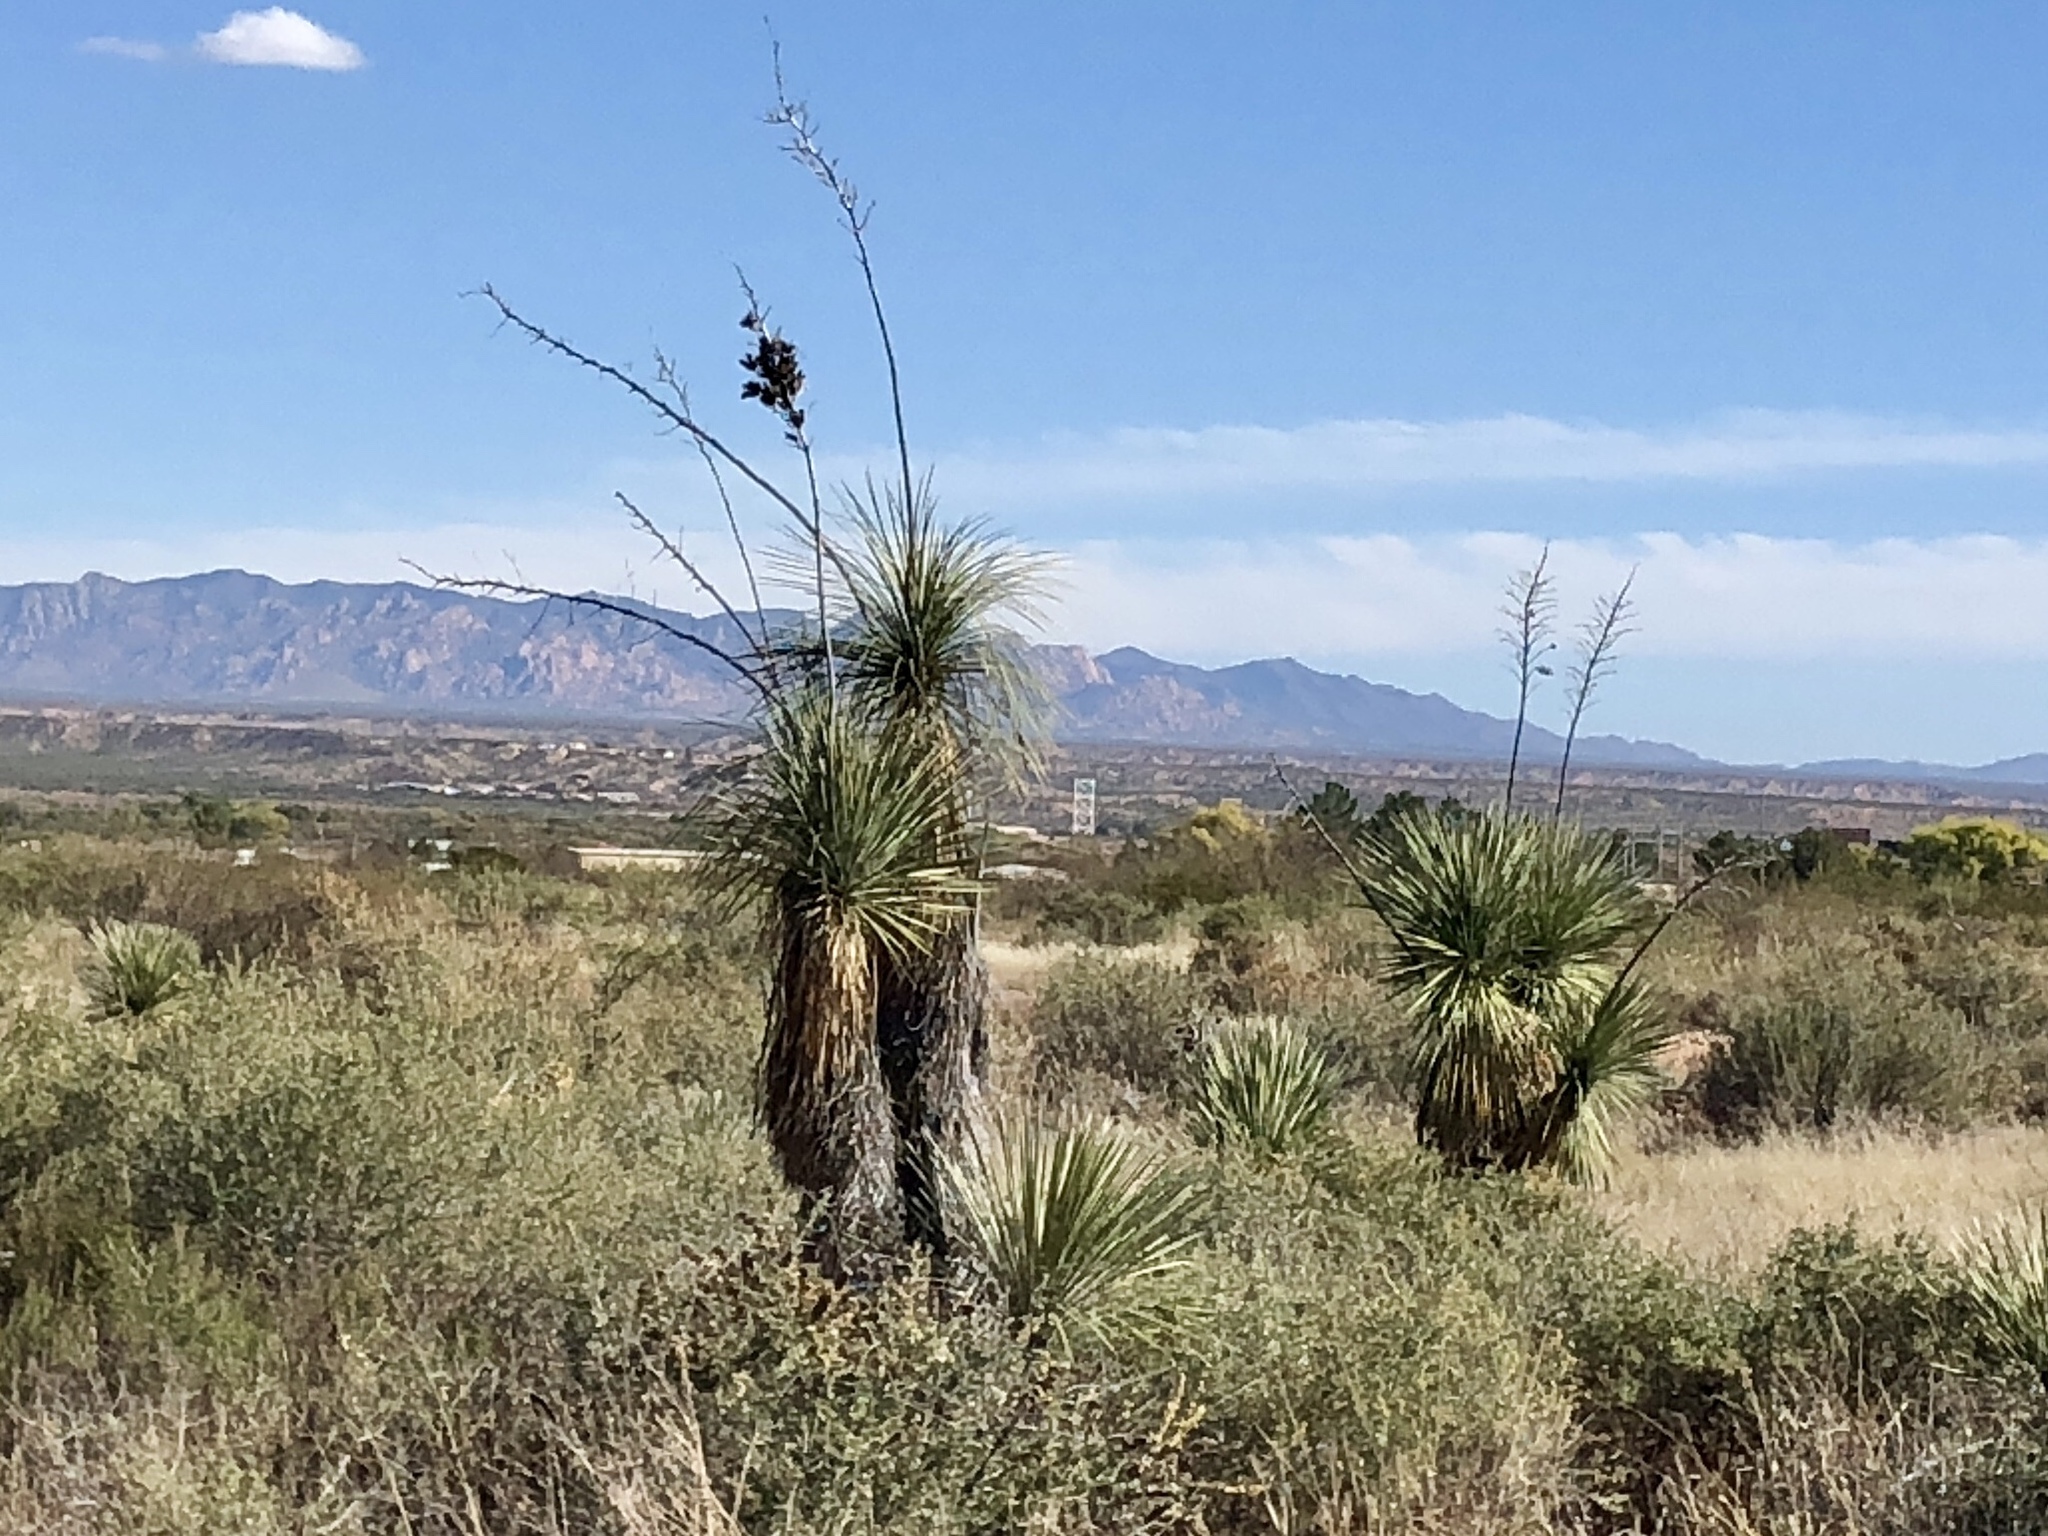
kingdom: Plantae
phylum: Tracheophyta
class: Liliopsida
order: Asparagales
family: Asparagaceae
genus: Yucca
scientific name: Yucca elata
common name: Palmella
